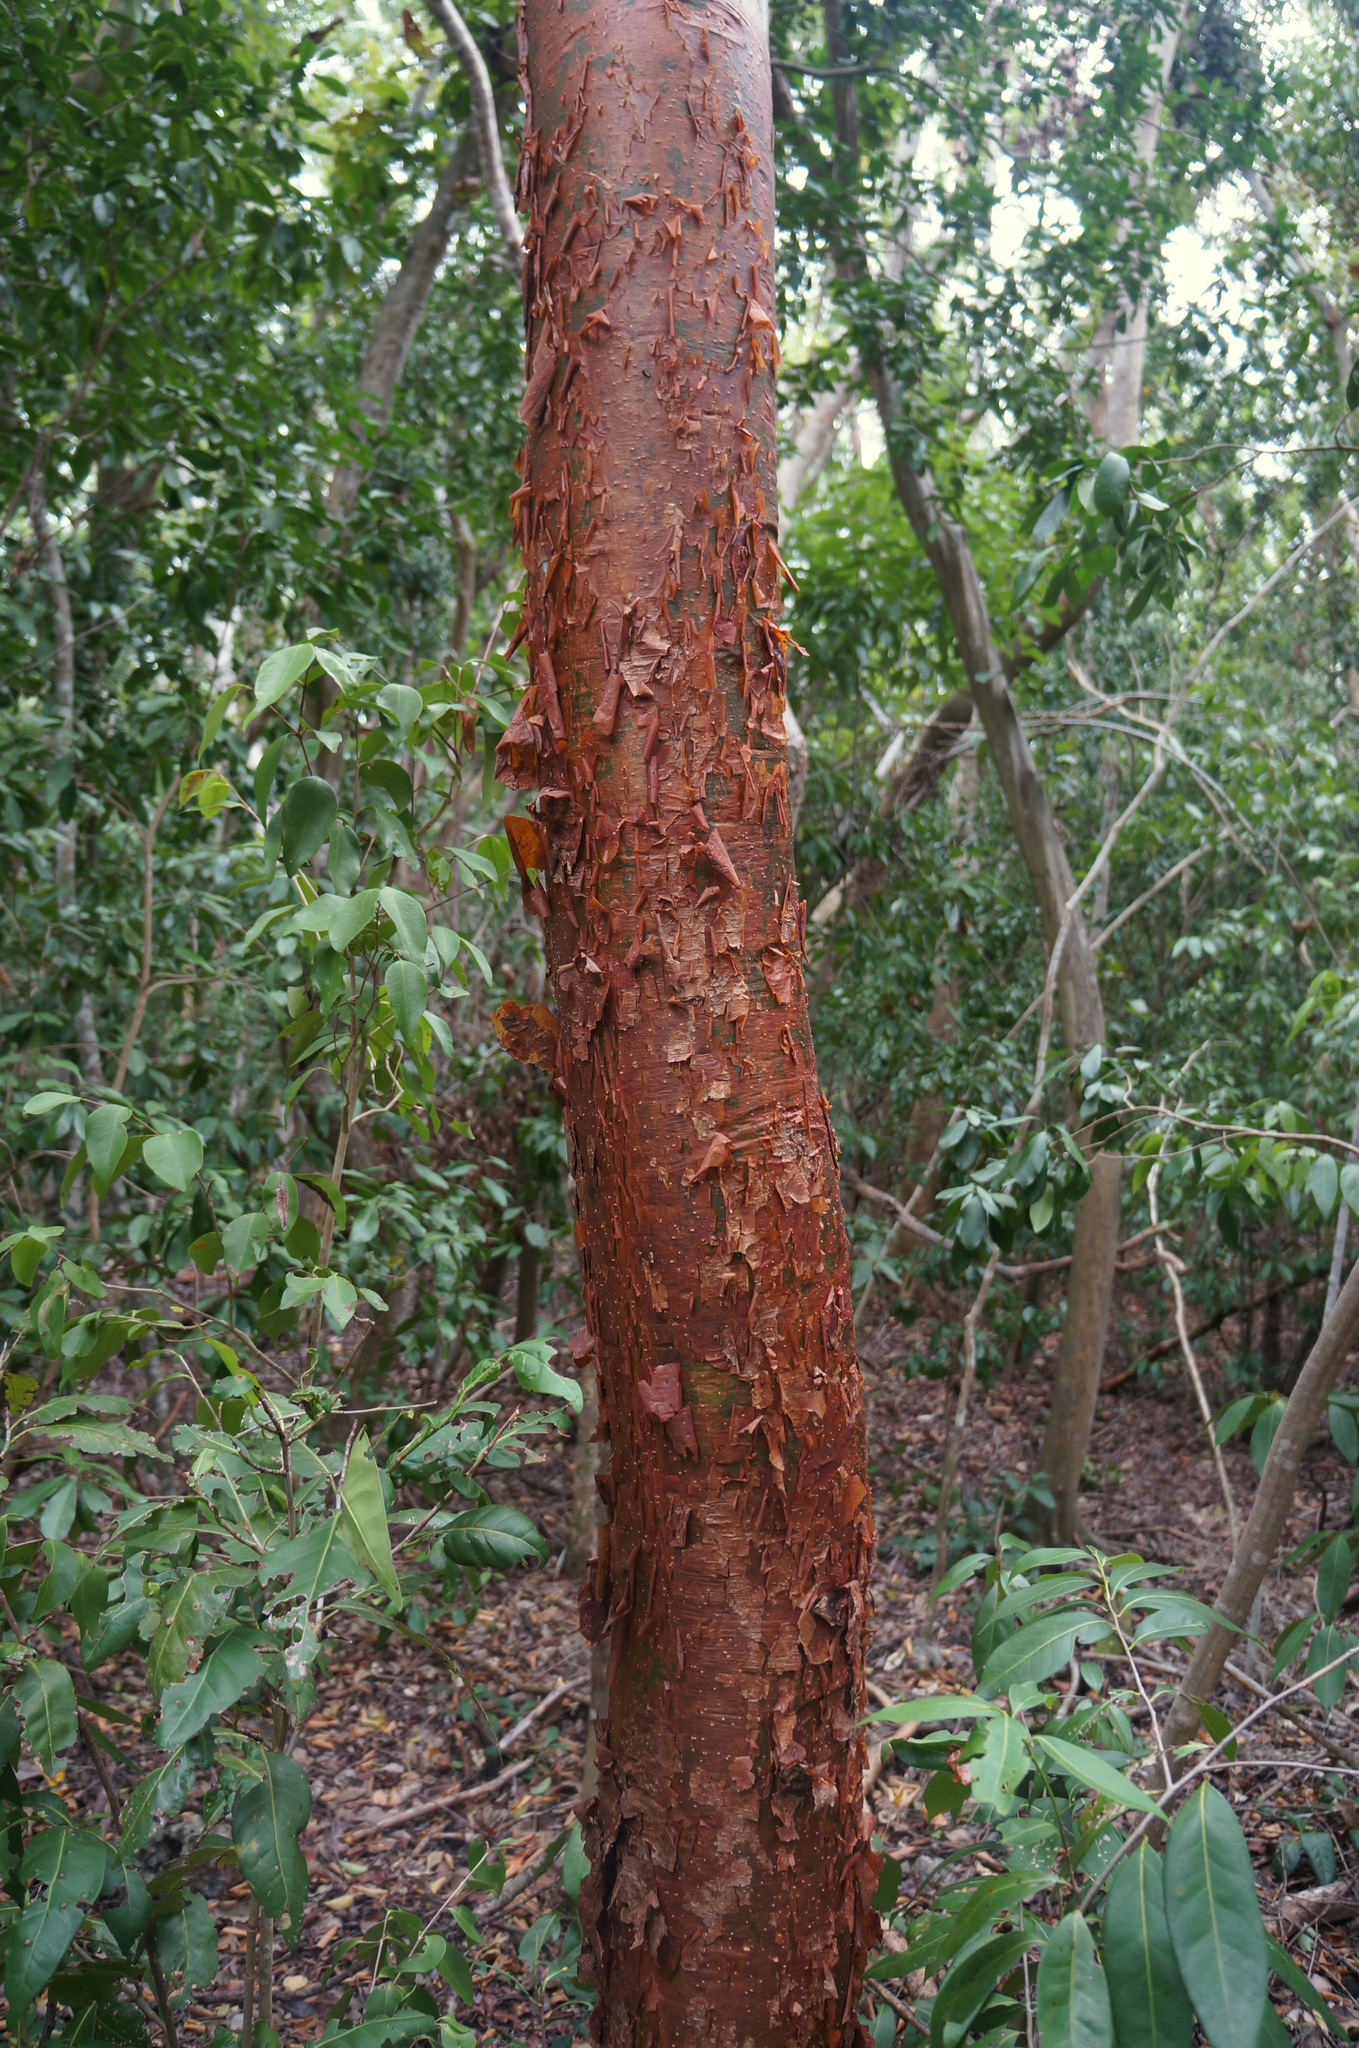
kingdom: Plantae
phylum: Tracheophyta
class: Magnoliopsida
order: Sapindales
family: Burseraceae
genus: Bursera
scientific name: Bursera simaruba
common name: Turpentine tree
